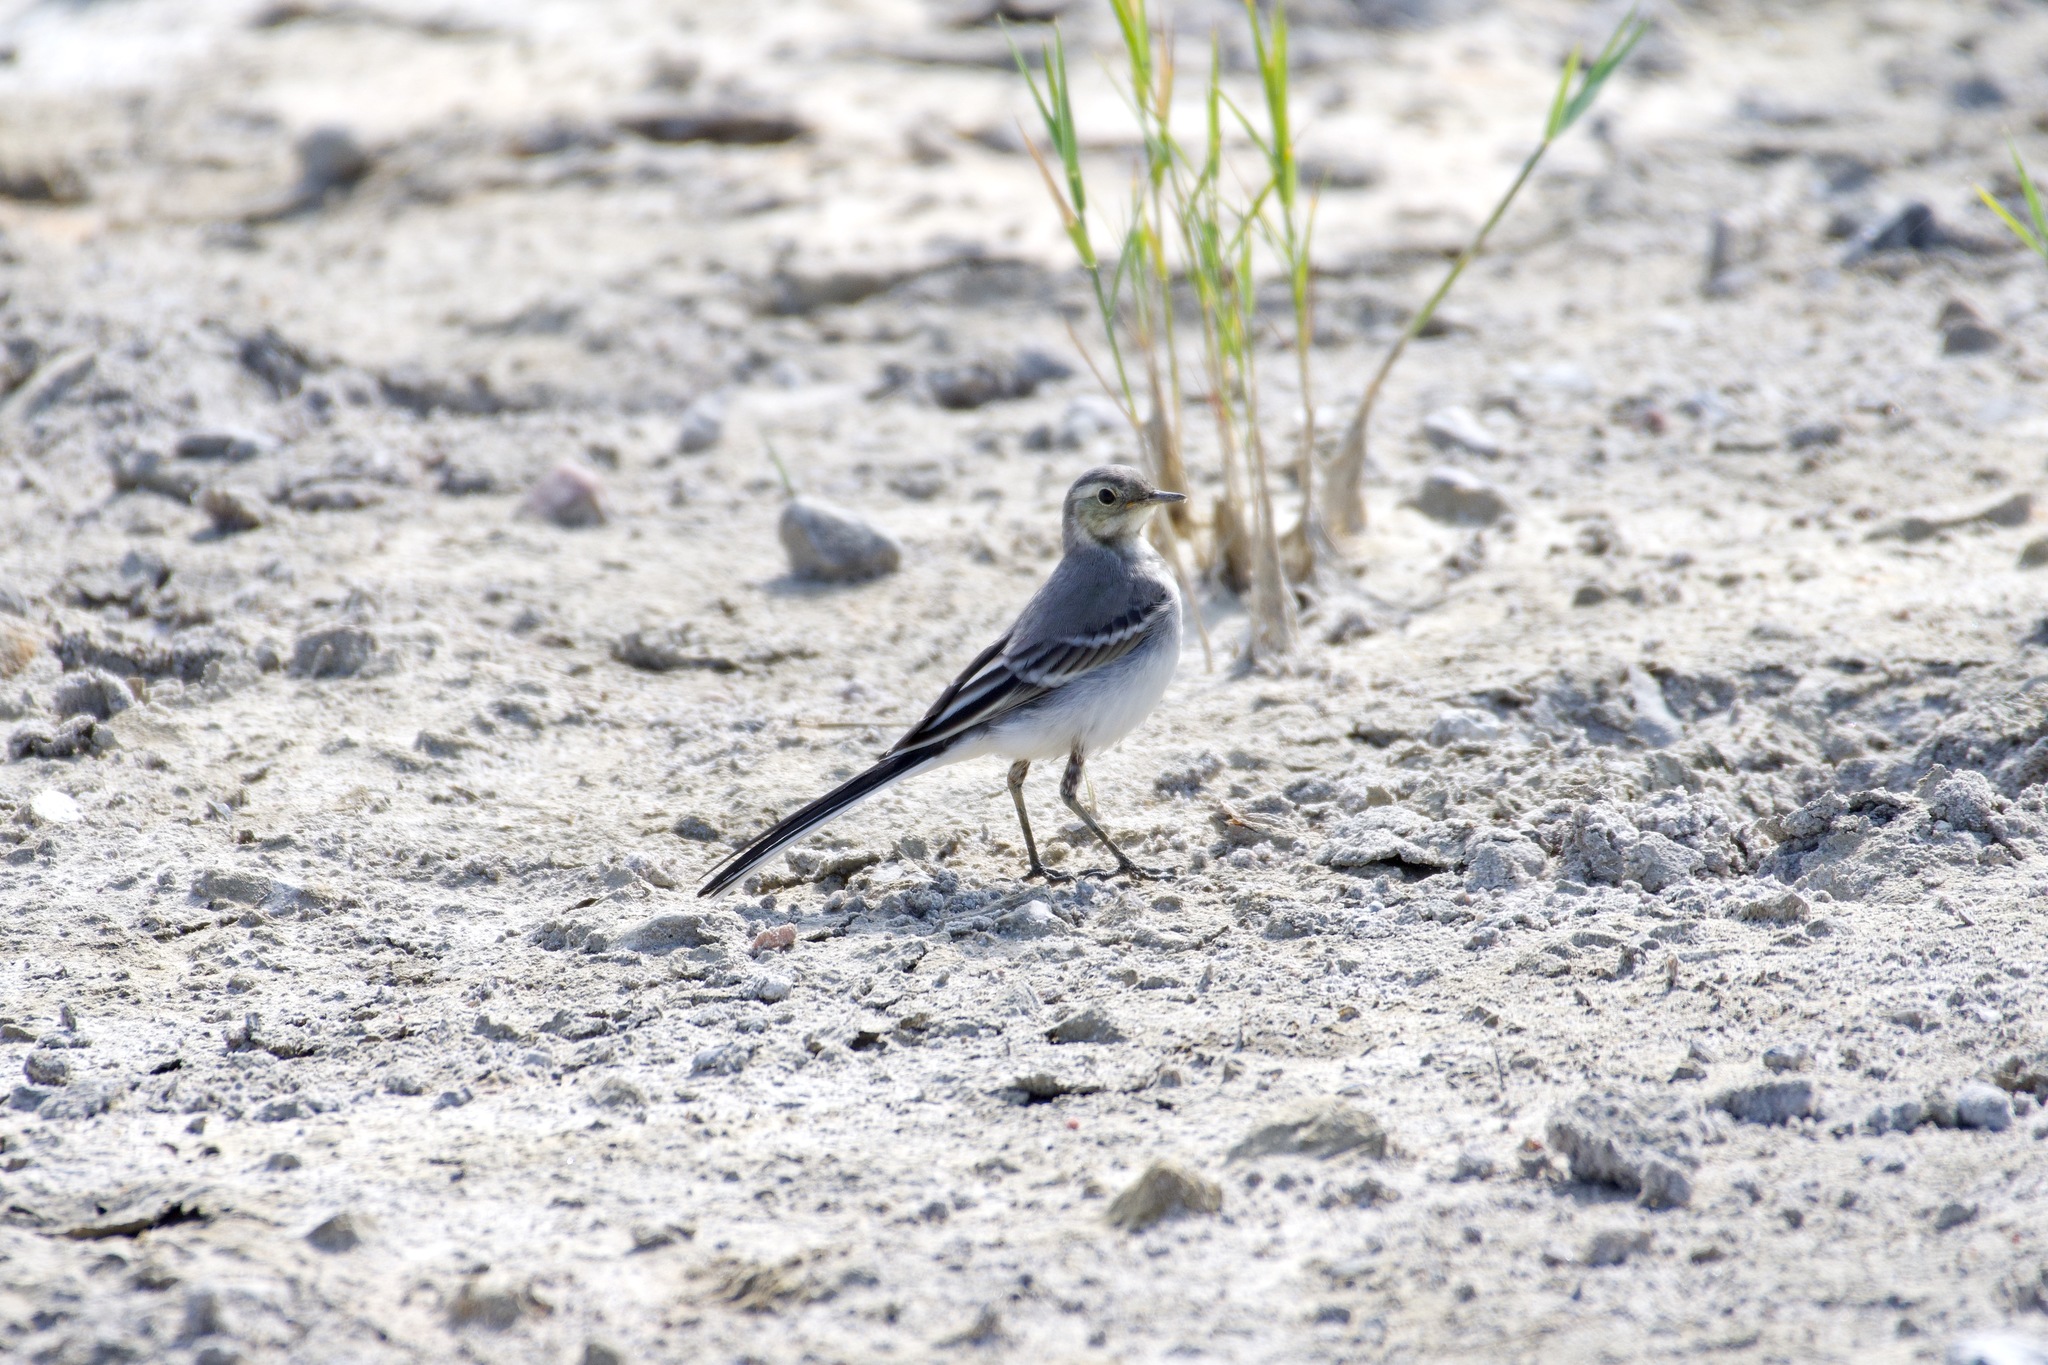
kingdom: Animalia
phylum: Chordata
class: Aves
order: Passeriformes
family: Motacillidae
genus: Motacilla
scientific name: Motacilla alba
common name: White wagtail
